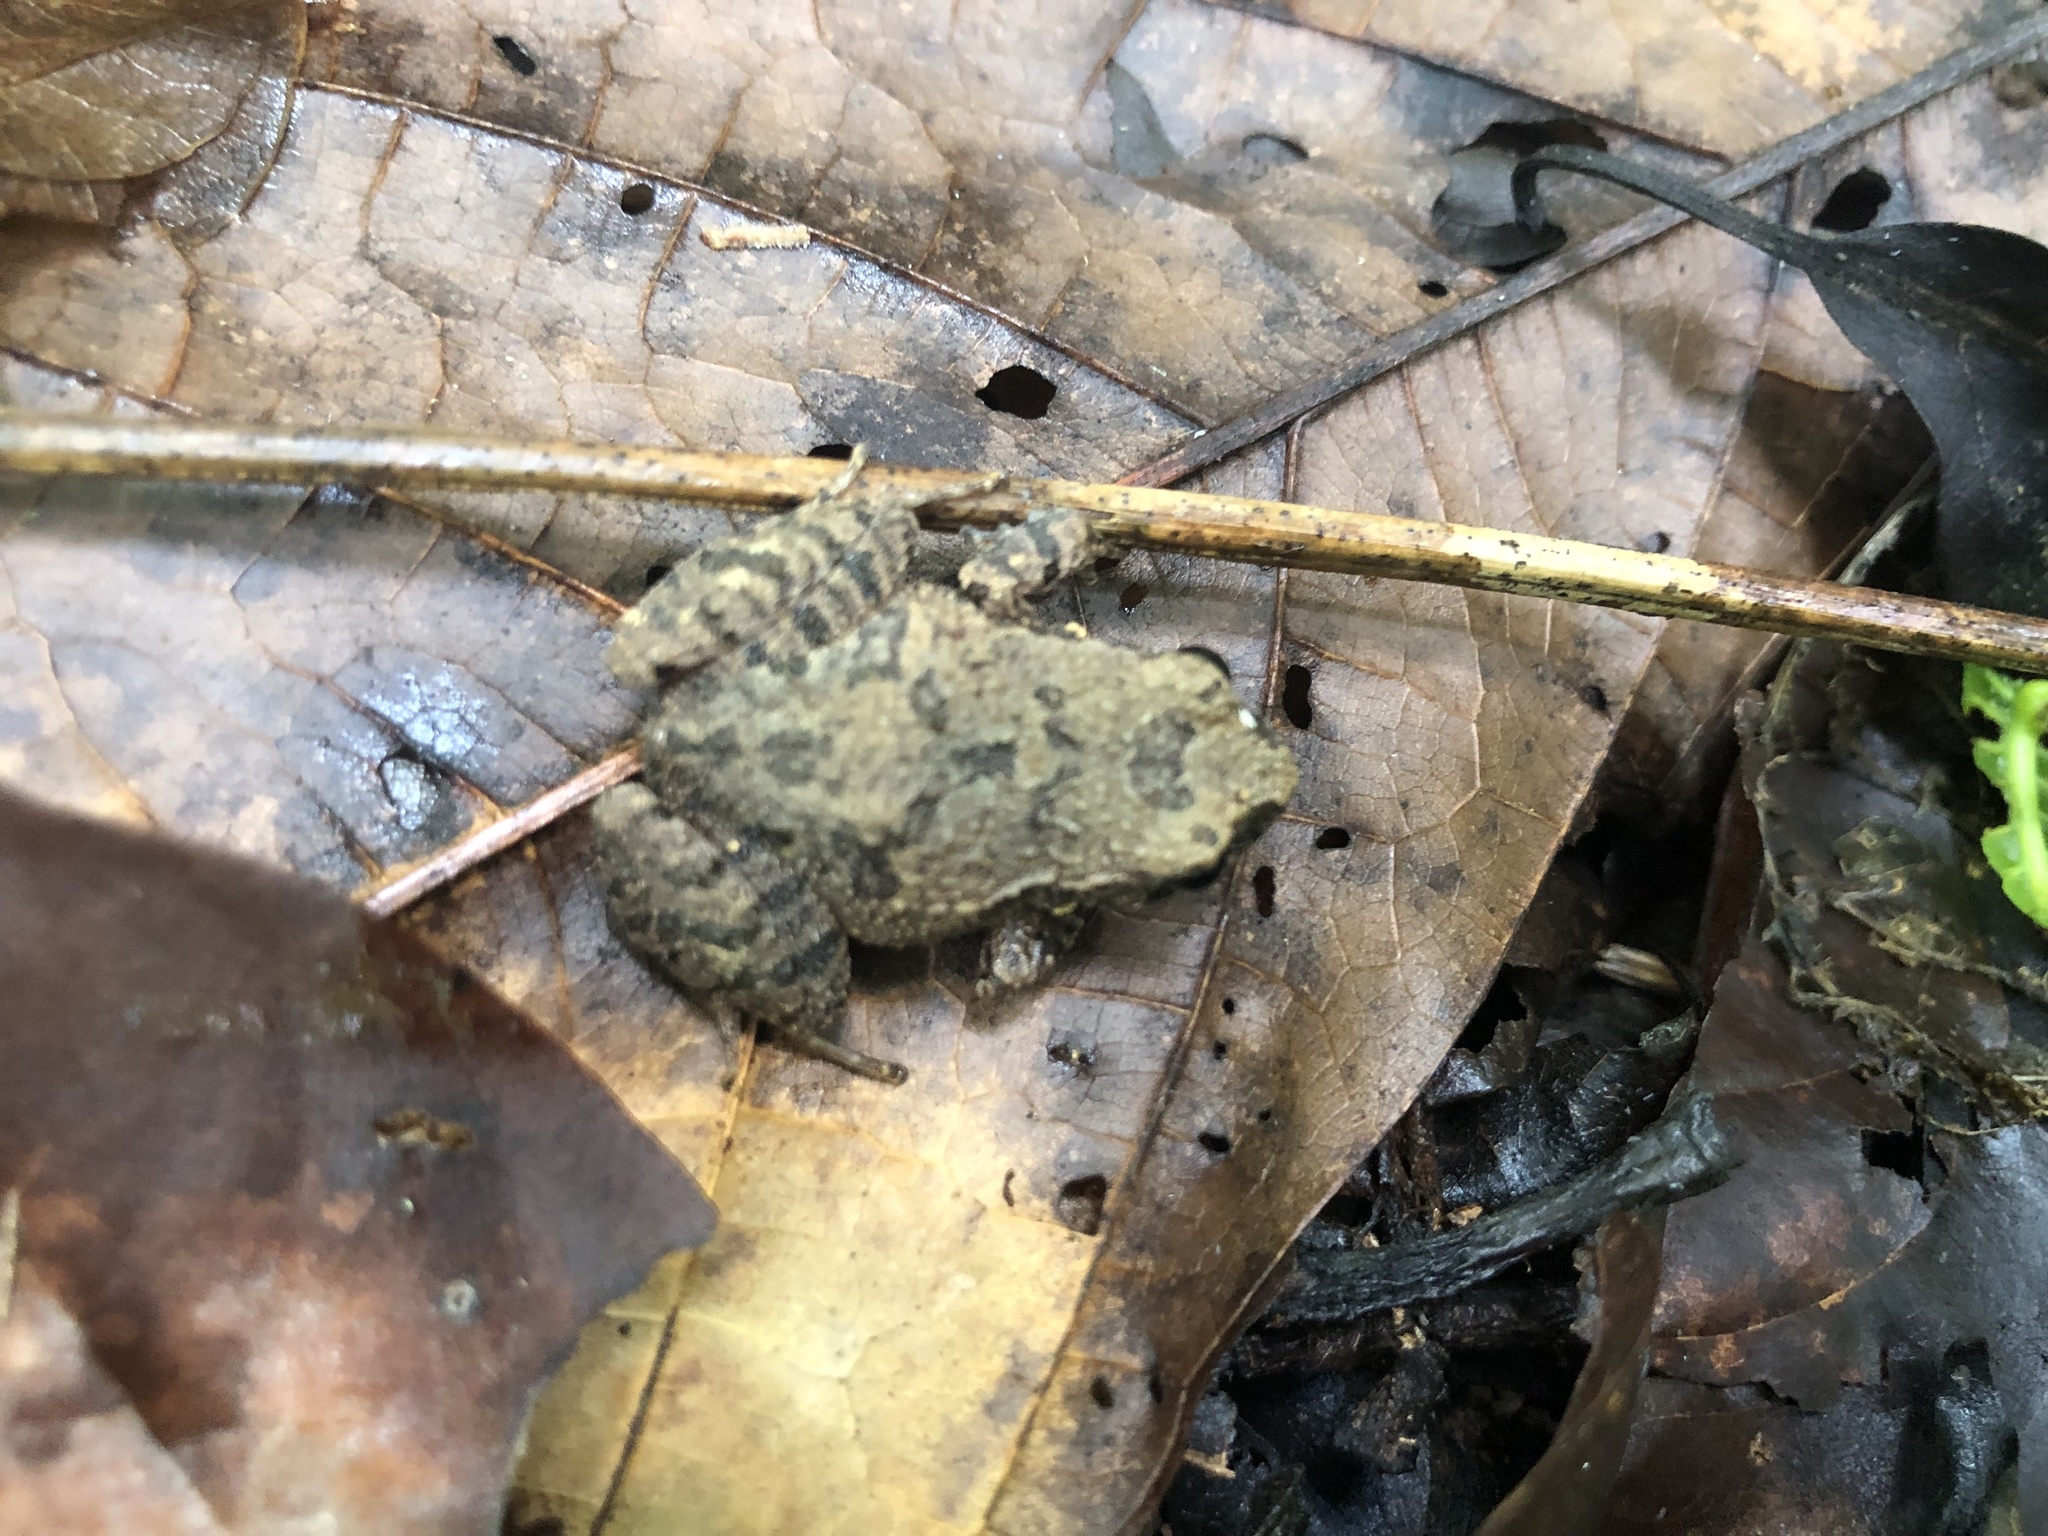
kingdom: Animalia
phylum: Chordata
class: Amphibia
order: Anura
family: Craugastoridae
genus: Craugastor
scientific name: Craugastor polyptychus
